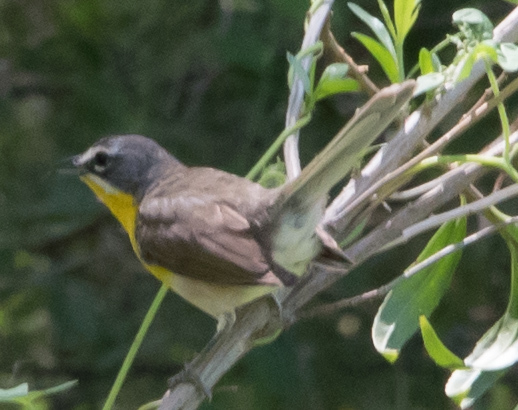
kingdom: Animalia
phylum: Chordata
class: Aves
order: Passeriformes
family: Parulidae
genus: Icteria
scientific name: Icteria virens
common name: Yellow-breasted chat
